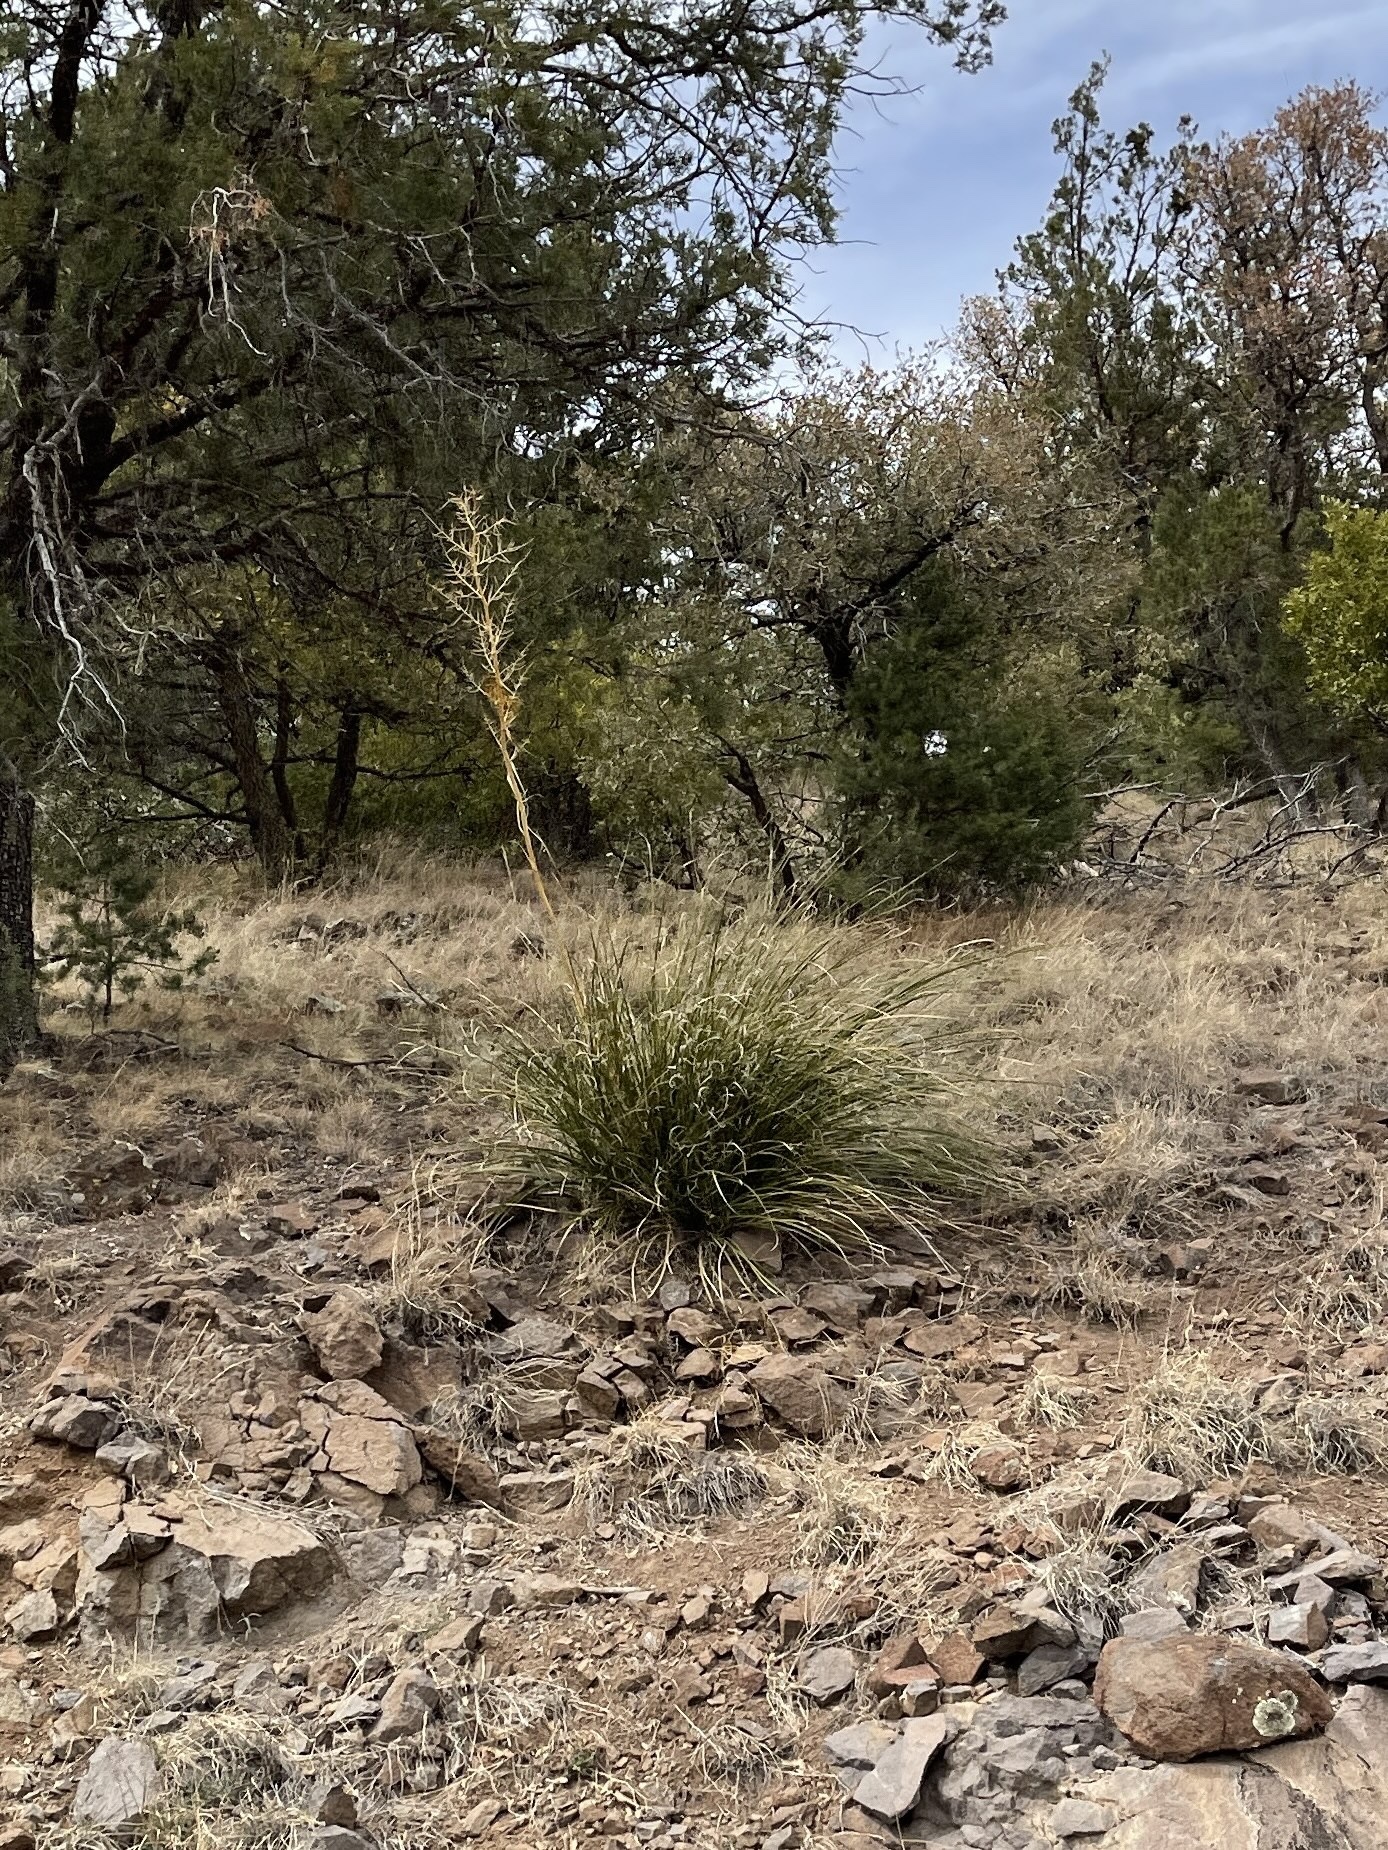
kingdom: Plantae
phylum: Tracheophyta
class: Liliopsida
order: Asparagales
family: Asparagaceae
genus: Nolina
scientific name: Nolina microcarpa
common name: Bear-grass
